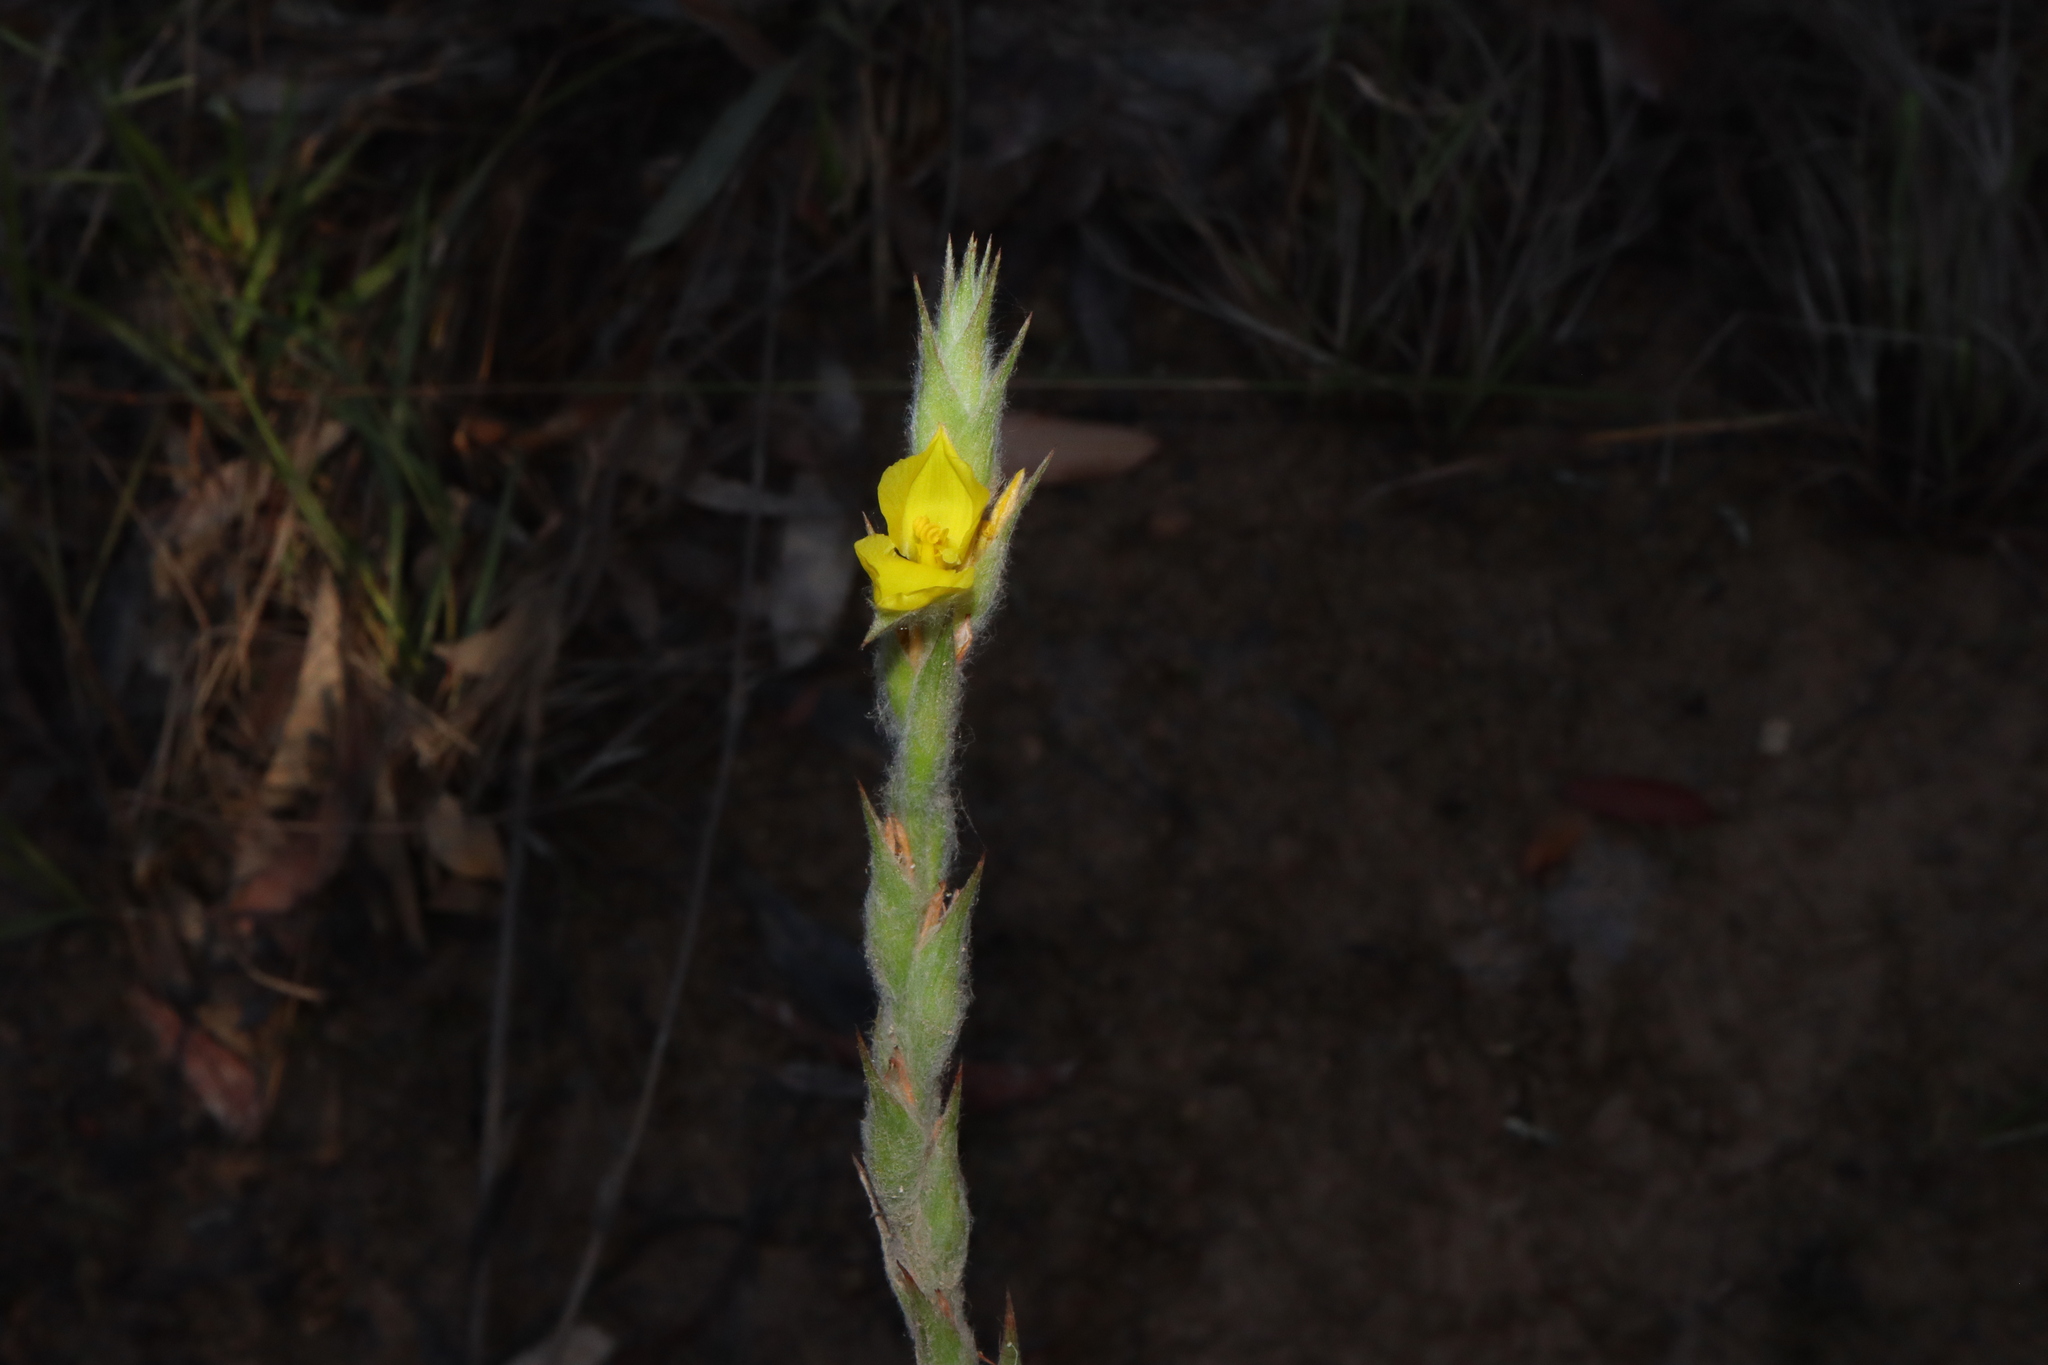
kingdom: Plantae
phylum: Tracheophyta
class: Liliopsida
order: Commelinales
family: Philydraceae
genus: Philydrum
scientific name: Philydrum lanuginosum
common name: Woolly frog's mouth
